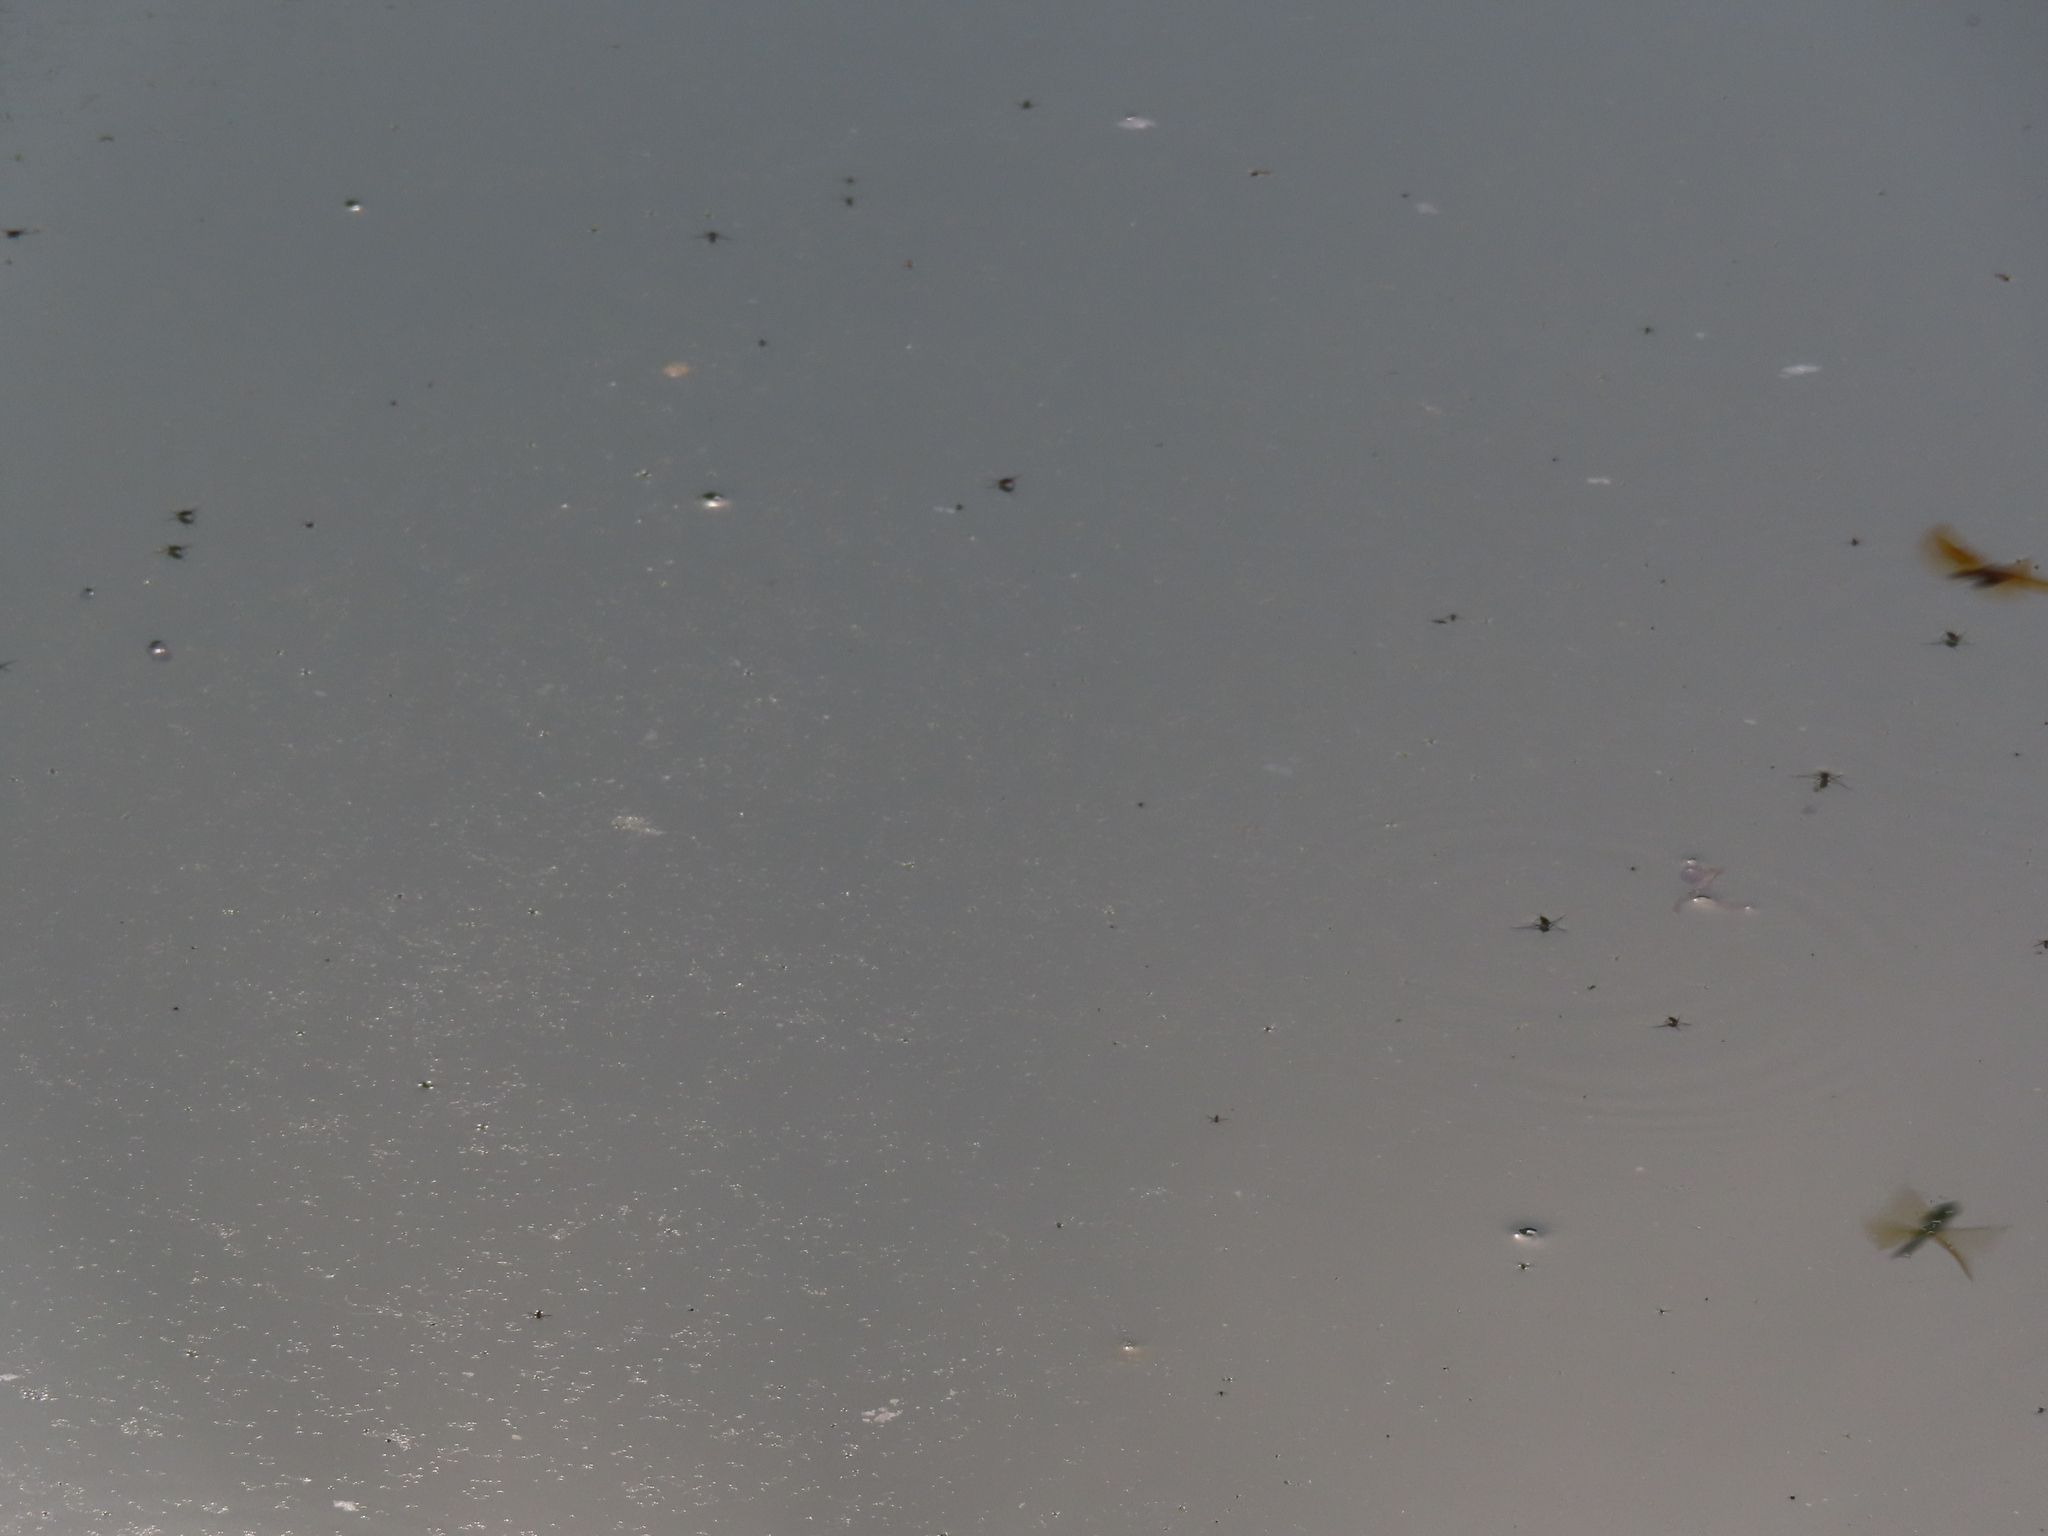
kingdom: Animalia
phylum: Arthropoda
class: Insecta
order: Odonata
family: Libellulidae
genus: Perithemis
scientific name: Perithemis tenera
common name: Eastern amberwing
